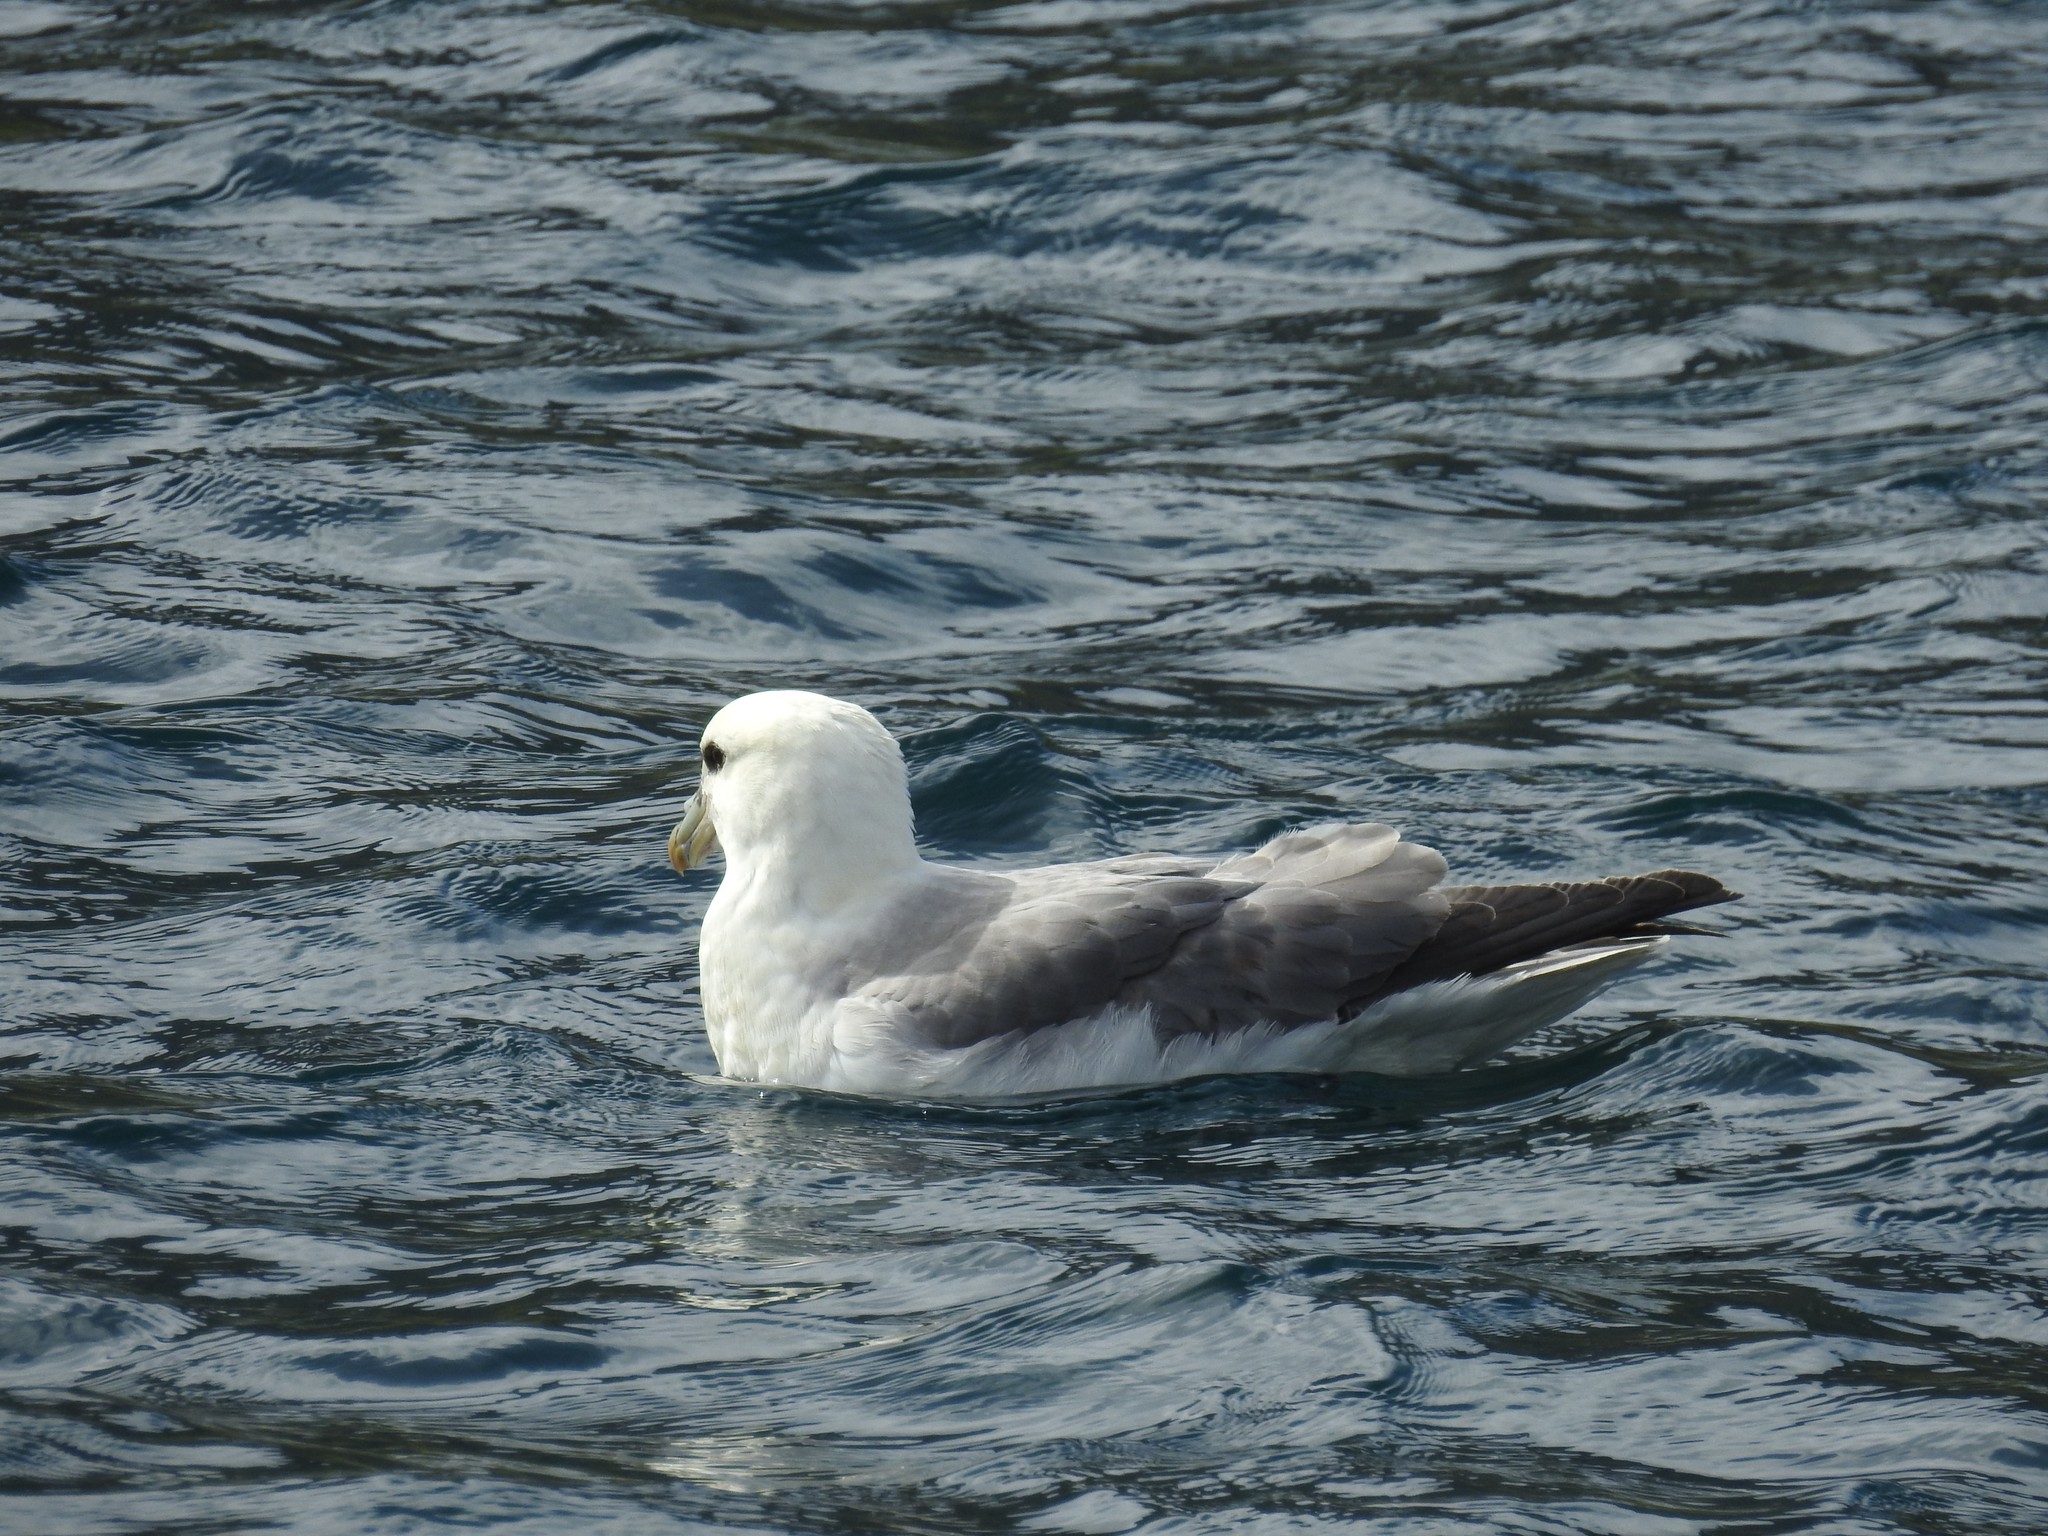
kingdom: Animalia
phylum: Chordata
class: Aves
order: Procellariiformes
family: Procellariidae
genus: Fulmarus
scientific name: Fulmarus glacialis
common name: Northern fulmar
